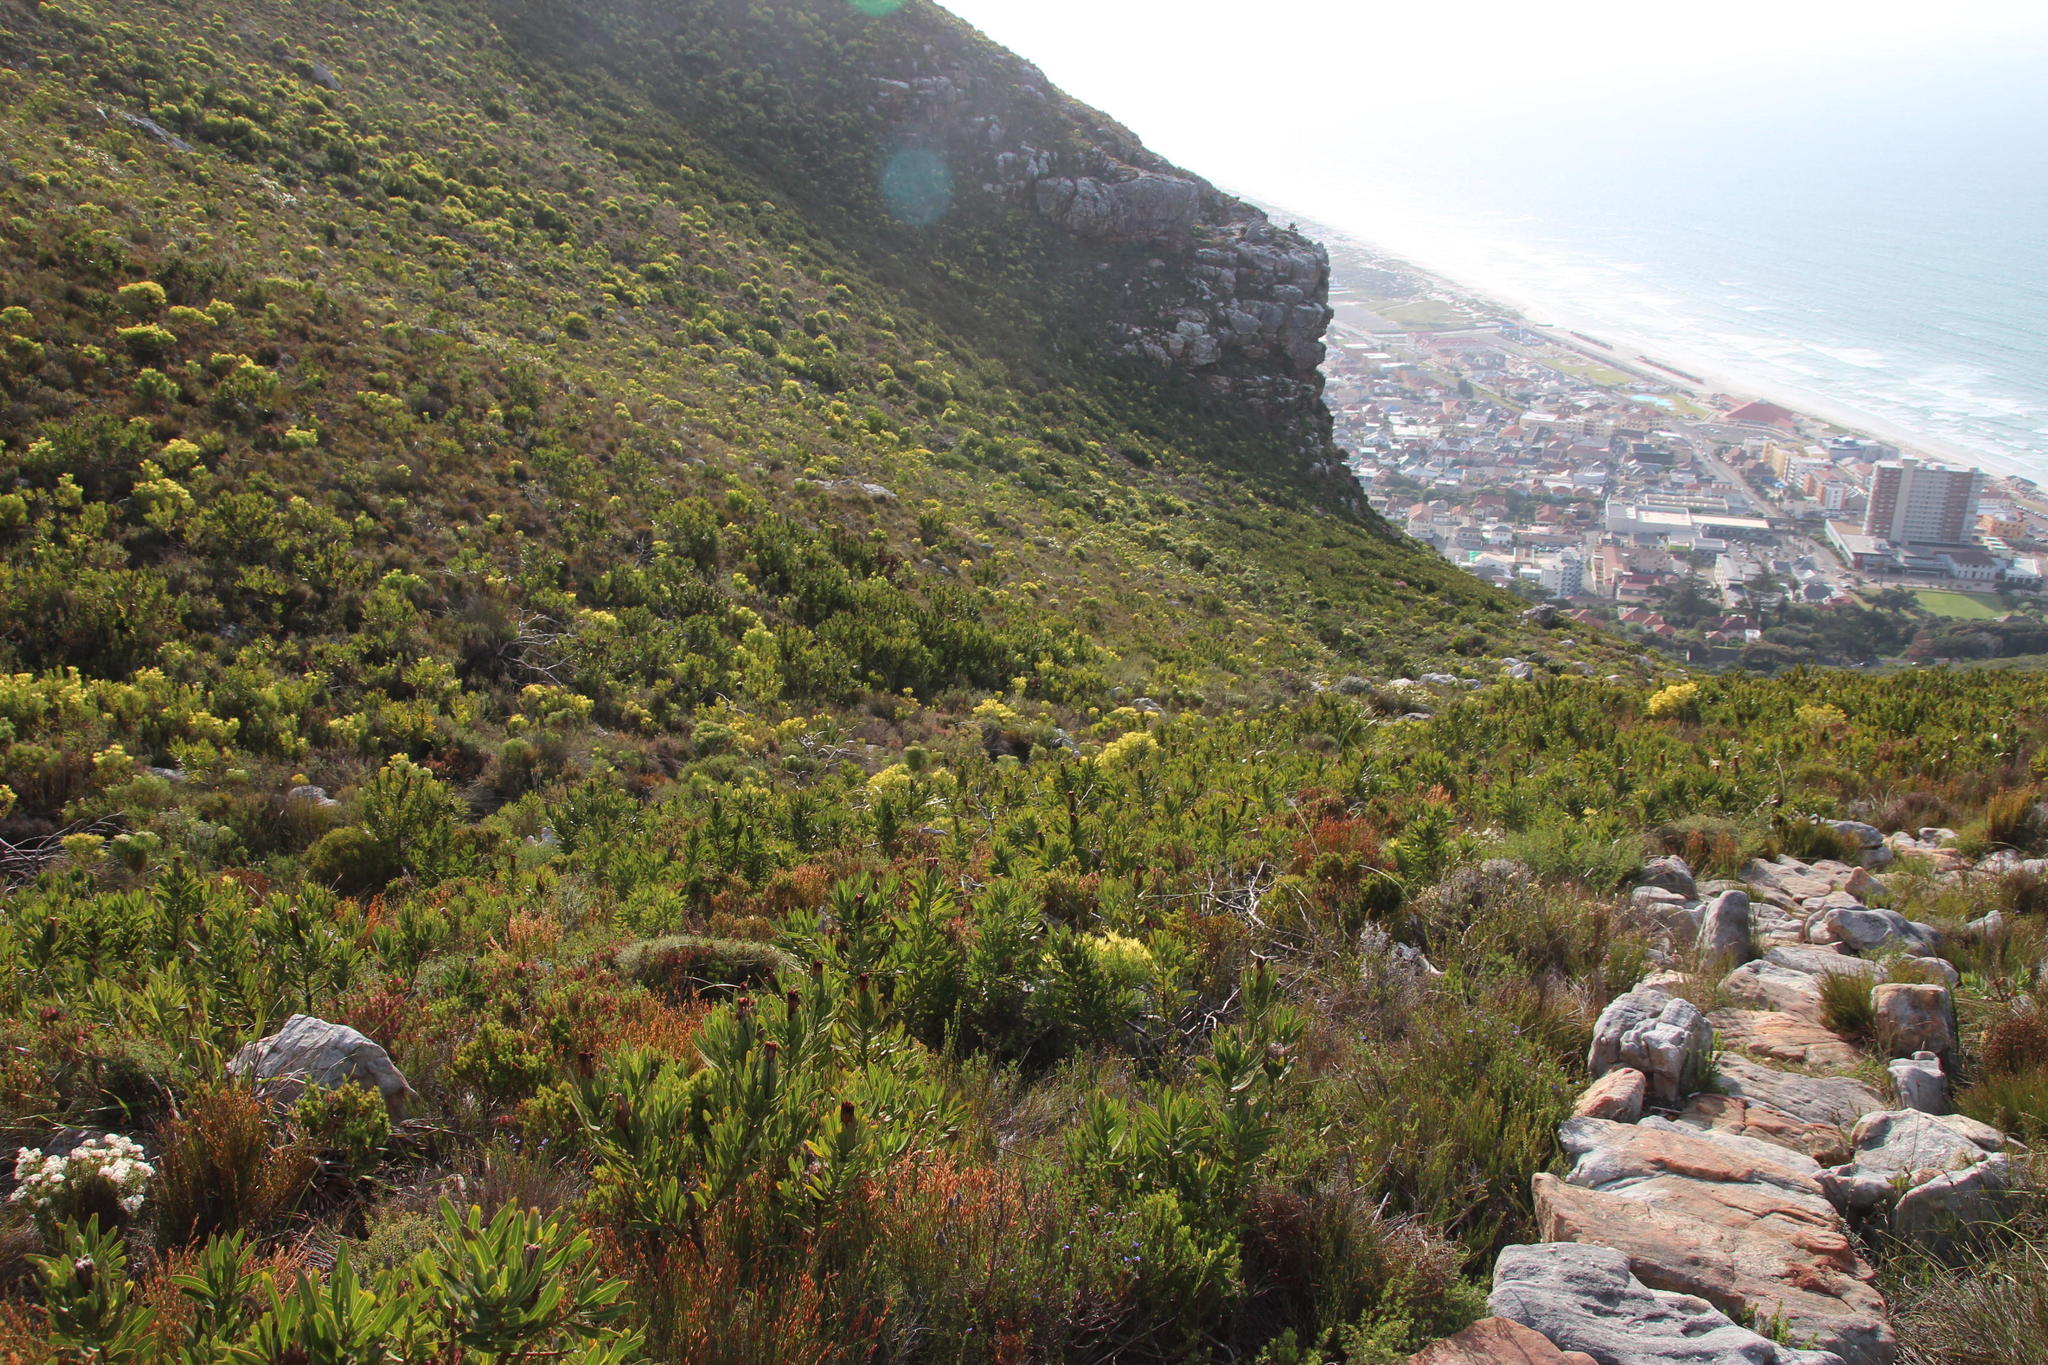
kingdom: Plantae
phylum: Tracheophyta
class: Magnoliopsida
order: Proteales
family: Proteaceae
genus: Protea
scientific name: Protea lepidocarpodendron
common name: Black-bearded protea
